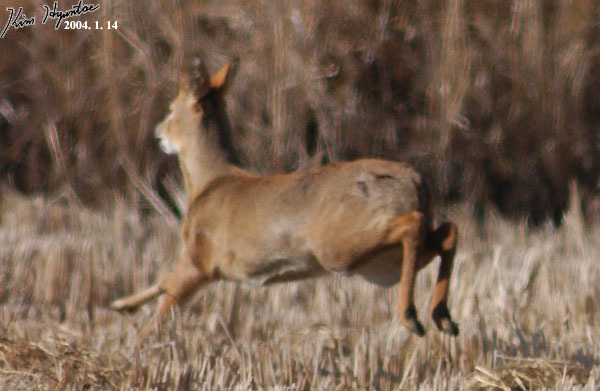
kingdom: Animalia
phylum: Chordata
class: Mammalia
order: Artiodactyla
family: Cervidae
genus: Hydropotes
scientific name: Hydropotes inermis
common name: Chinese water deer
